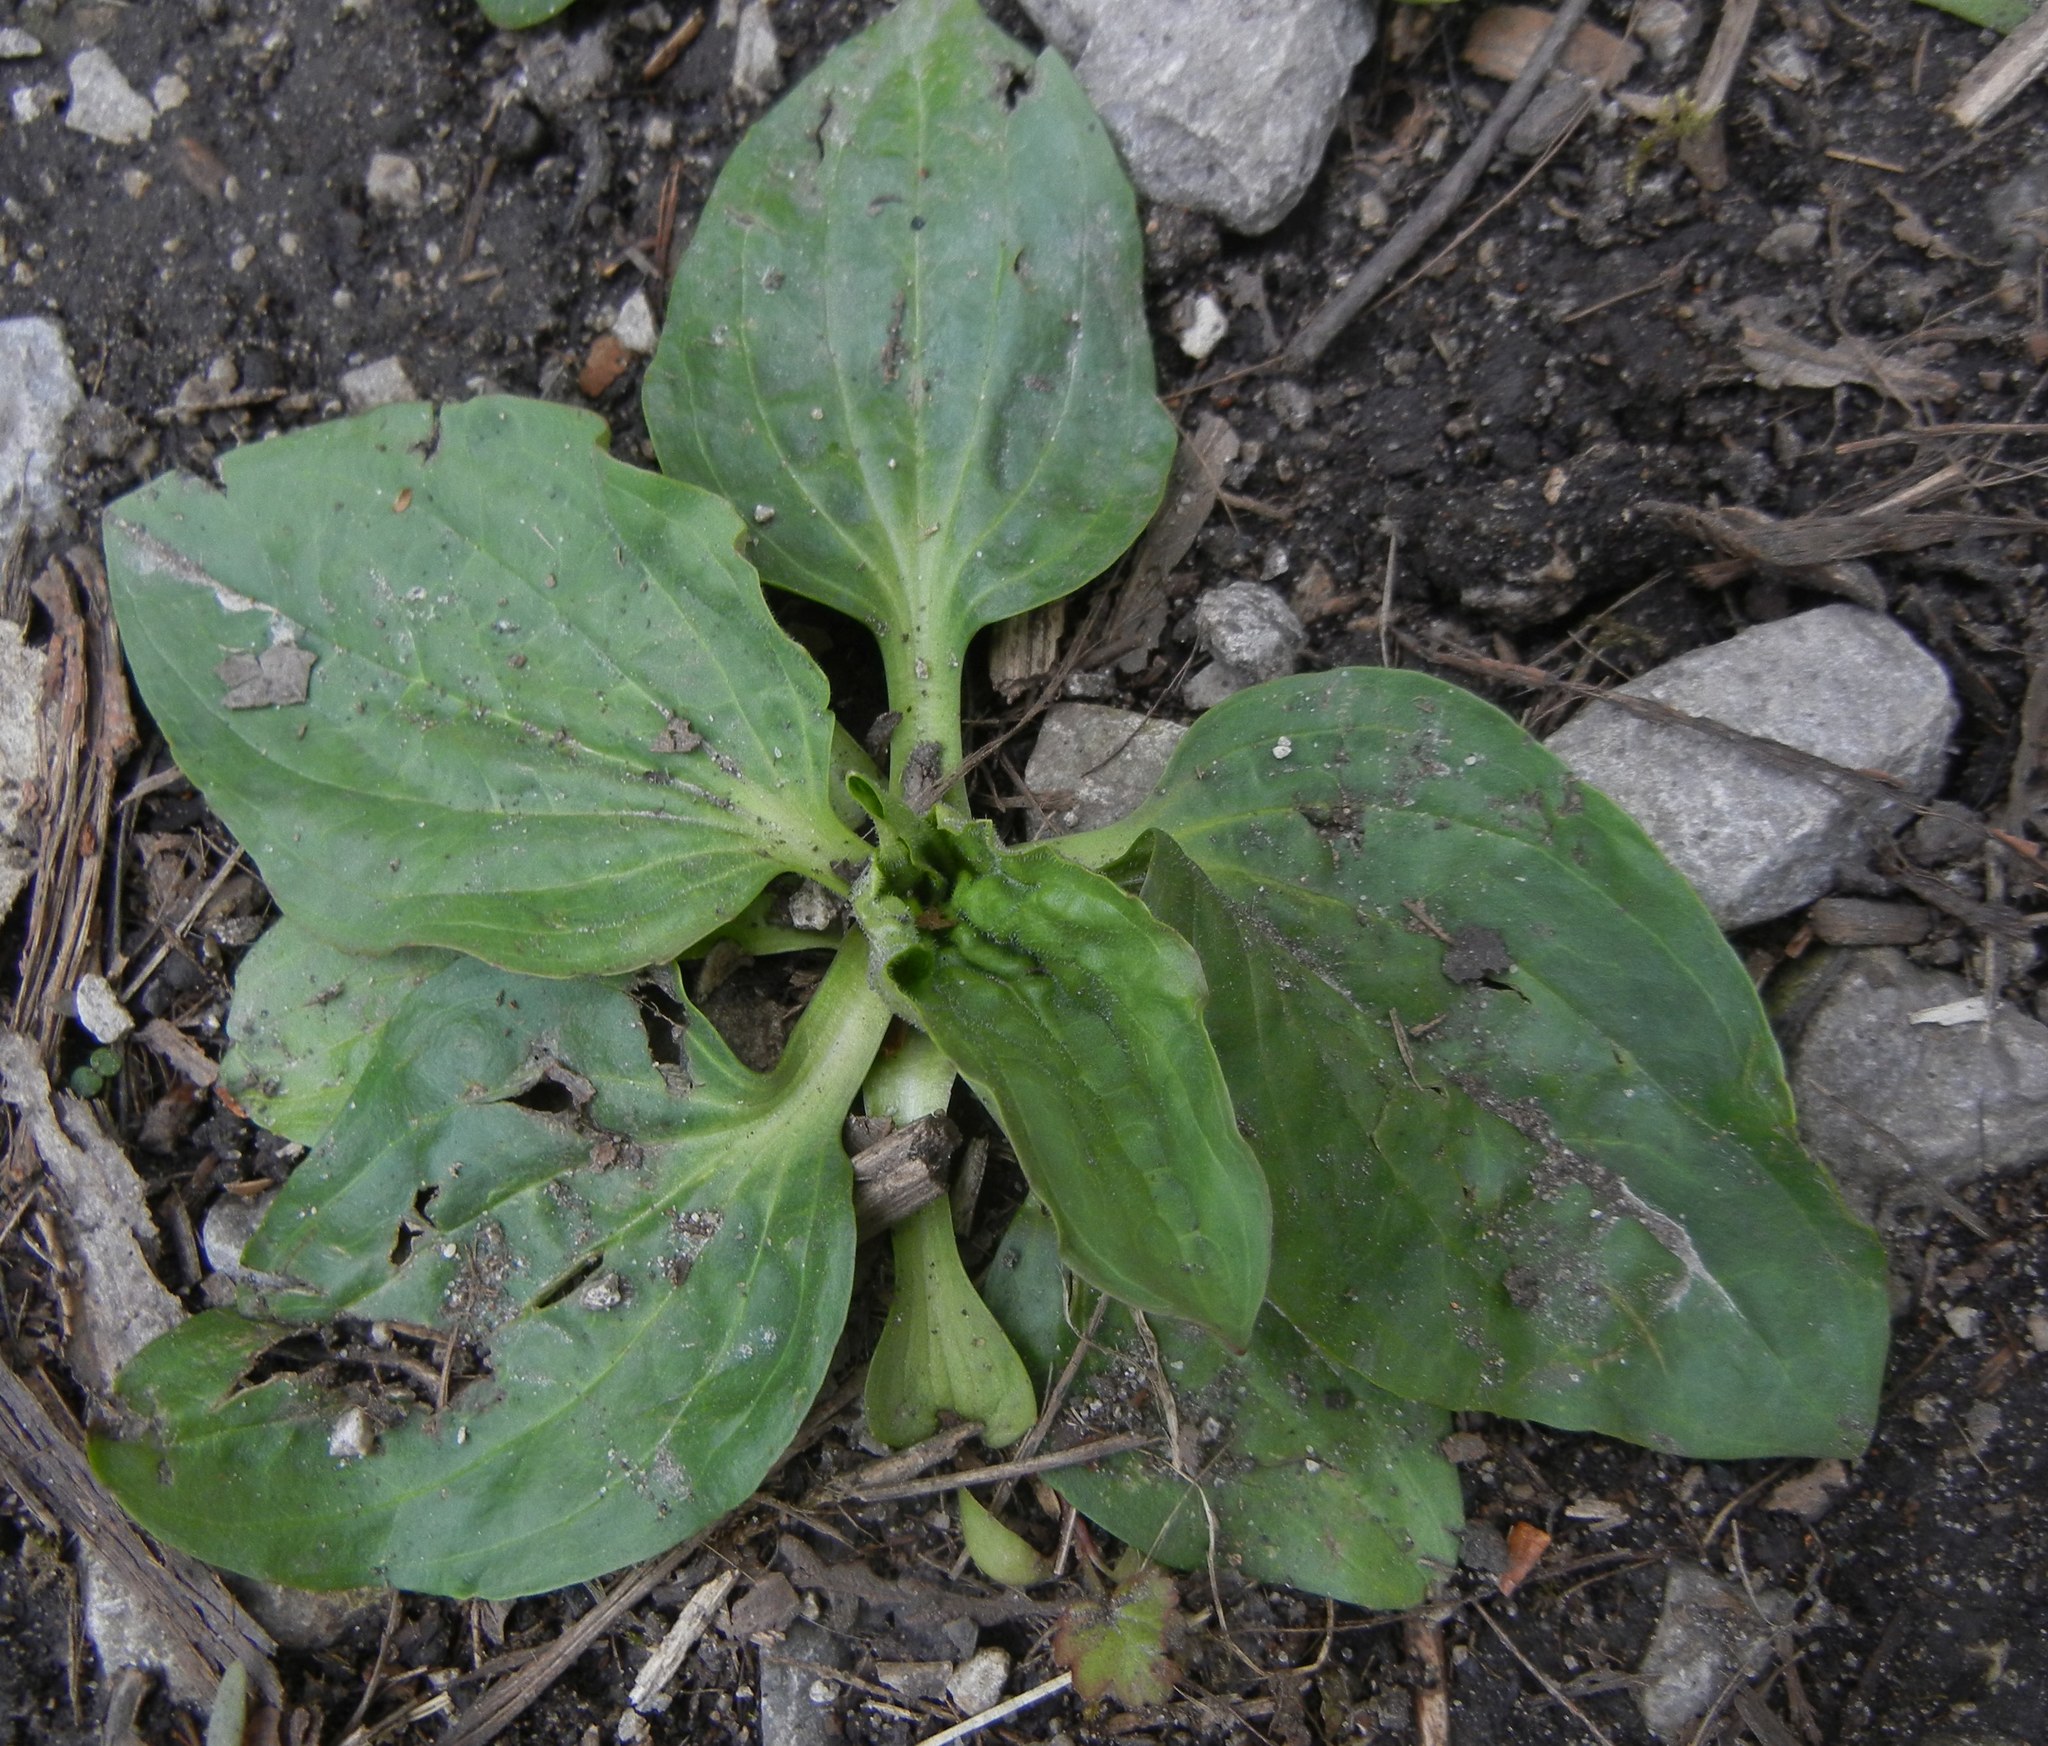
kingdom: Plantae
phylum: Tracheophyta
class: Magnoliopsida
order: Lamiales
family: Plantaginaceae
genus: Plantago
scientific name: Plantago major
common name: Common plantain
